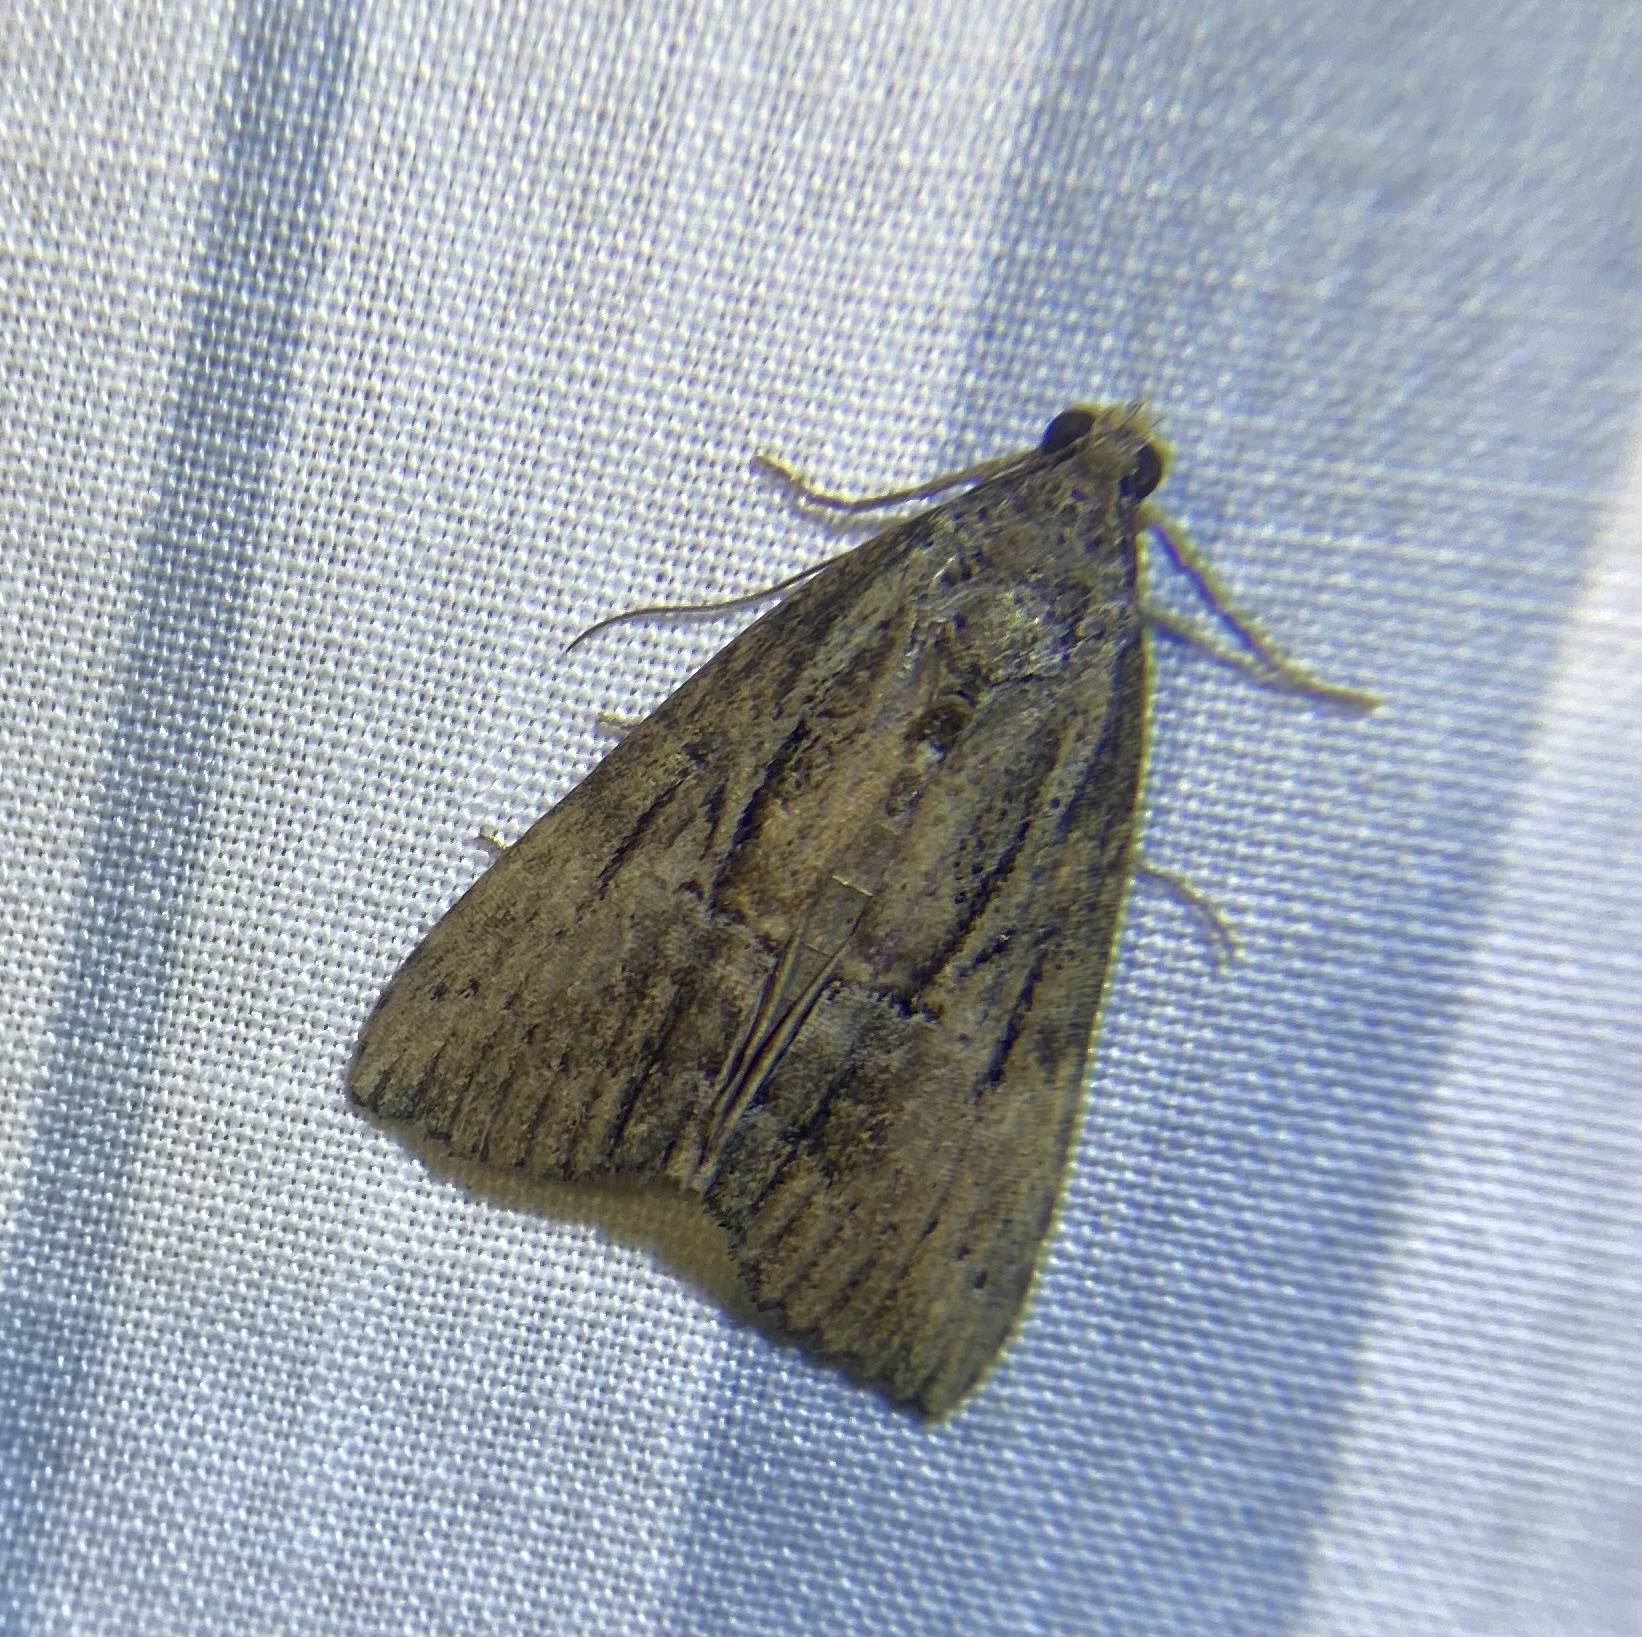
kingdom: Animalia
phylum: Arthropoda
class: Insecta
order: Lepidoptera
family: Erebidae
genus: Hypena
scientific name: Hypena scabra
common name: Green cloverworm
